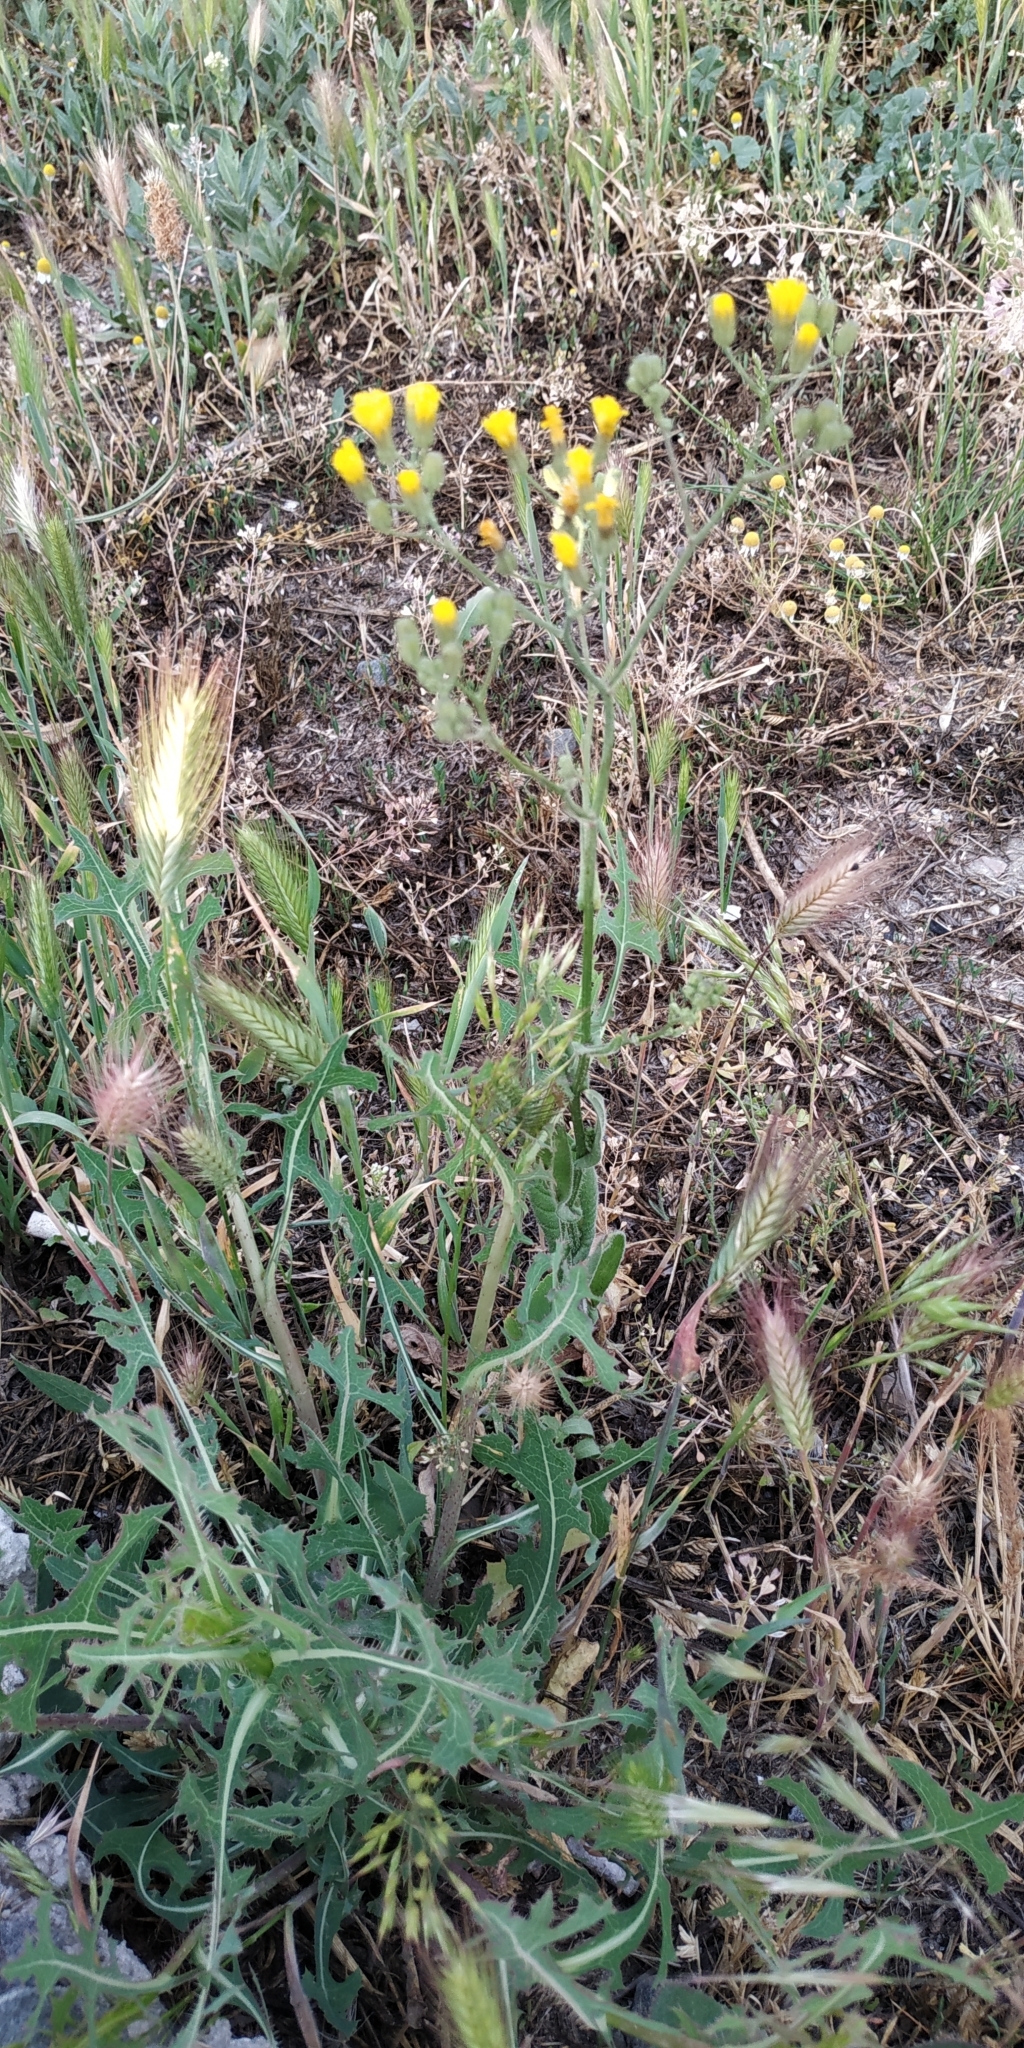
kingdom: Plantae
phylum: Tracheophyta
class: Magnoliopsida
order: Asterales
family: Asteraceae
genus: Lactuca
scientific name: Lactuca serriola
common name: Prickly lettuce
